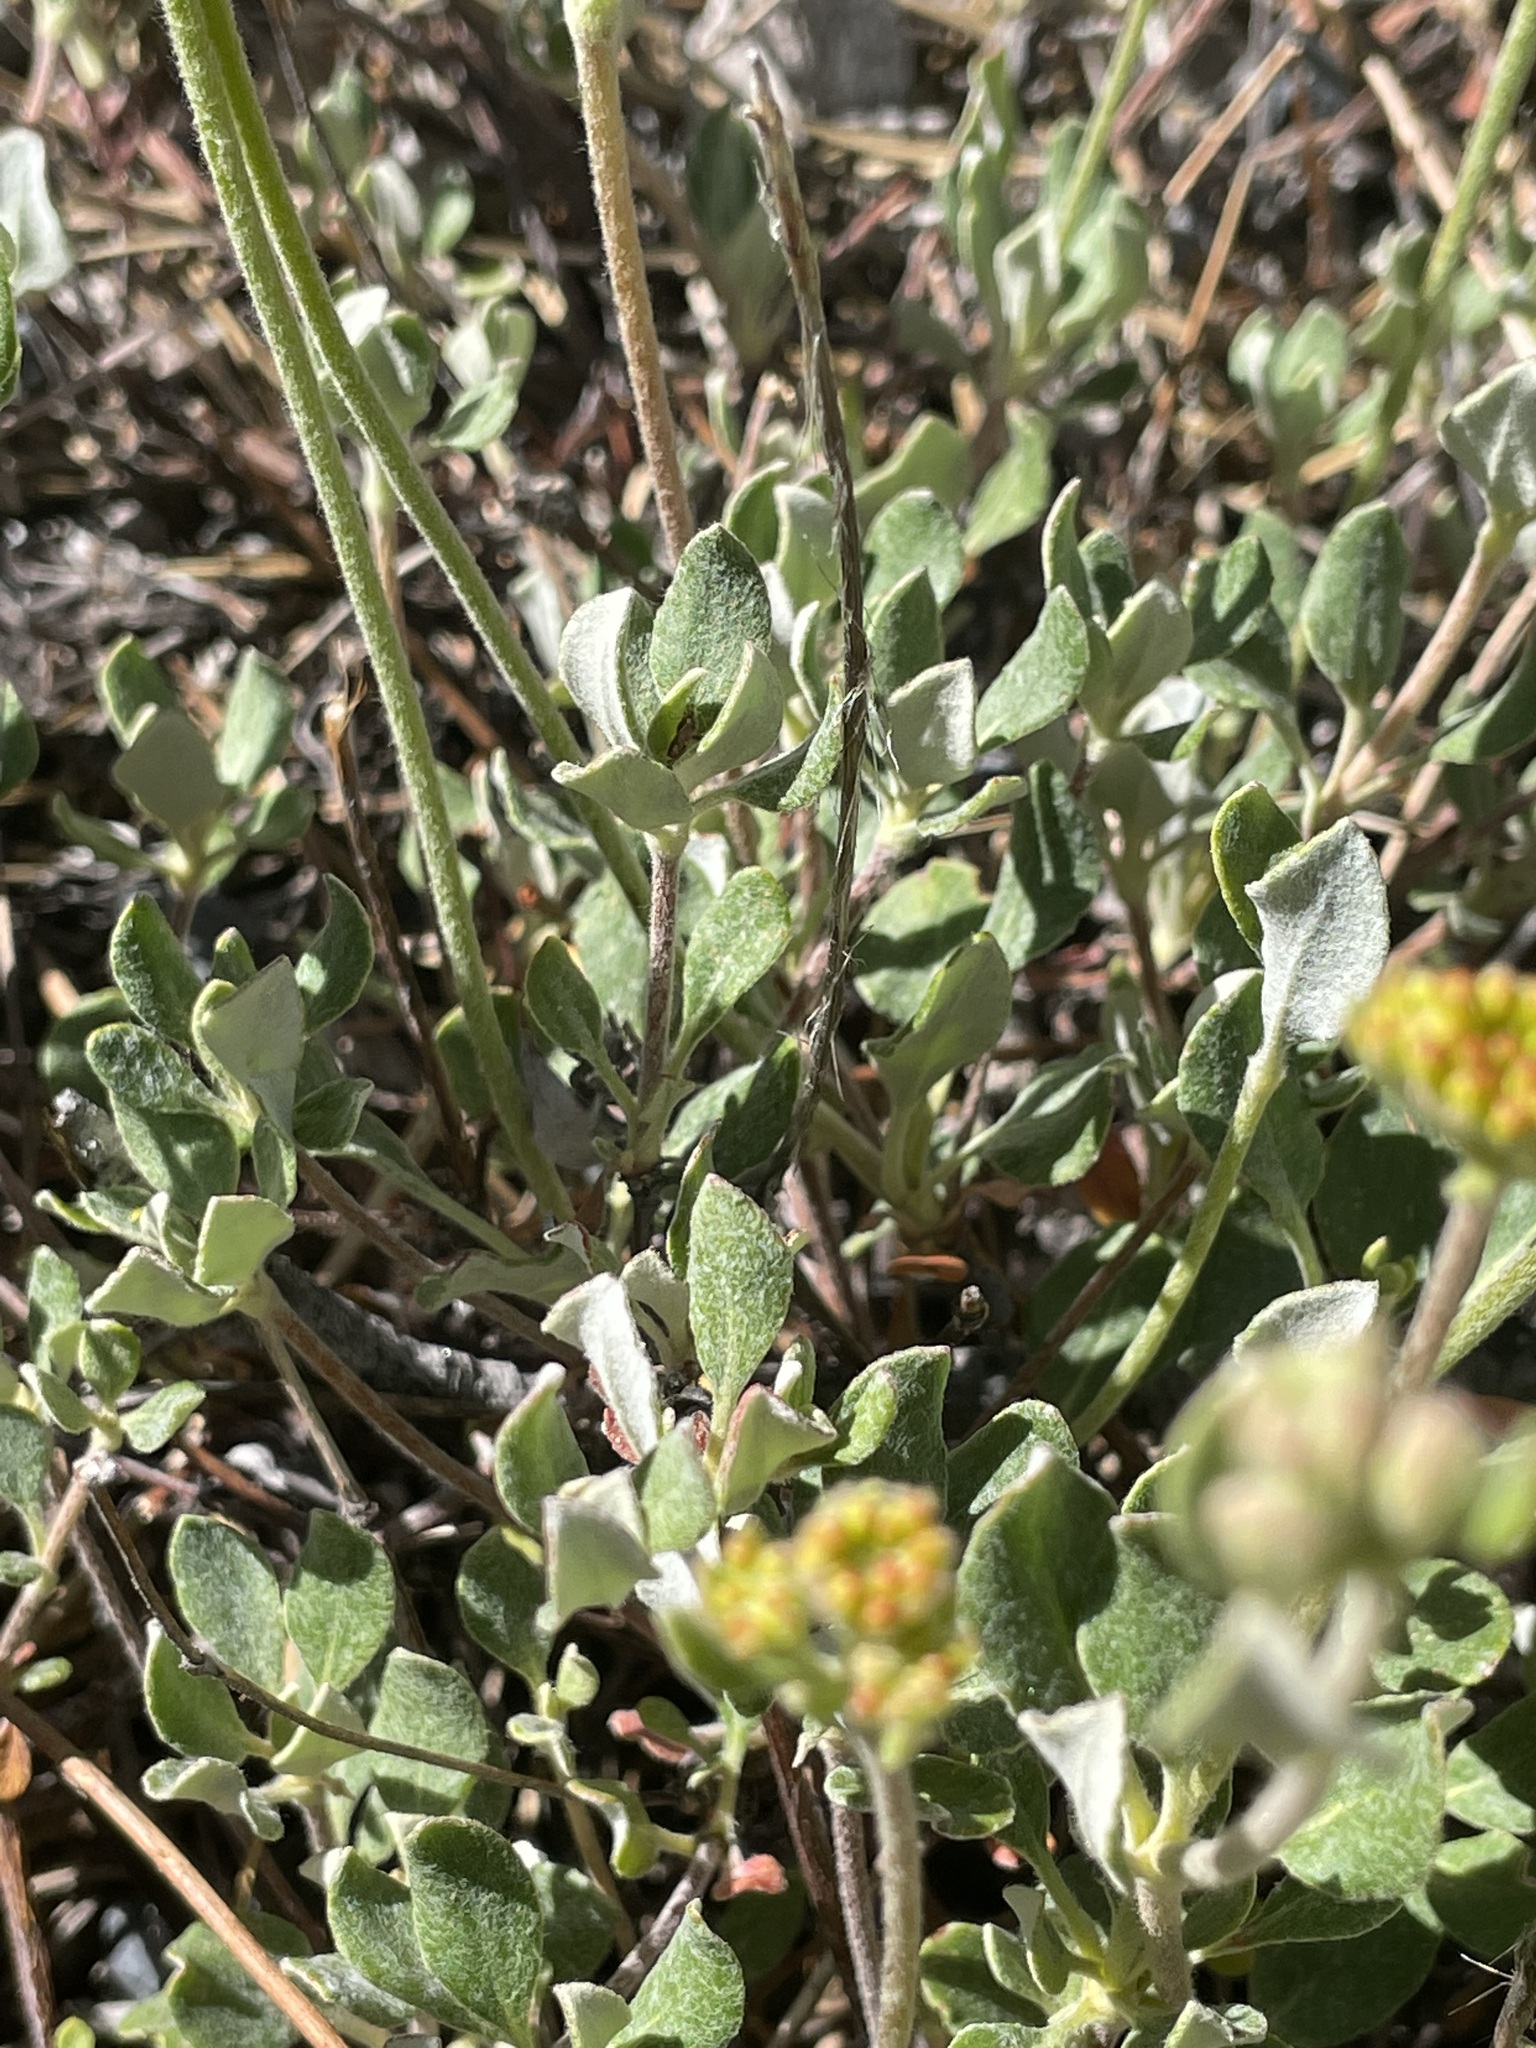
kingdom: Plantae
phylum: Tracheophyta
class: Magnoliopsida
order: Caryophyllales
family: Polygonaceae
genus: Eriogonum
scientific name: Eriogonum umbellatum
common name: Sulfur-buckwheat
